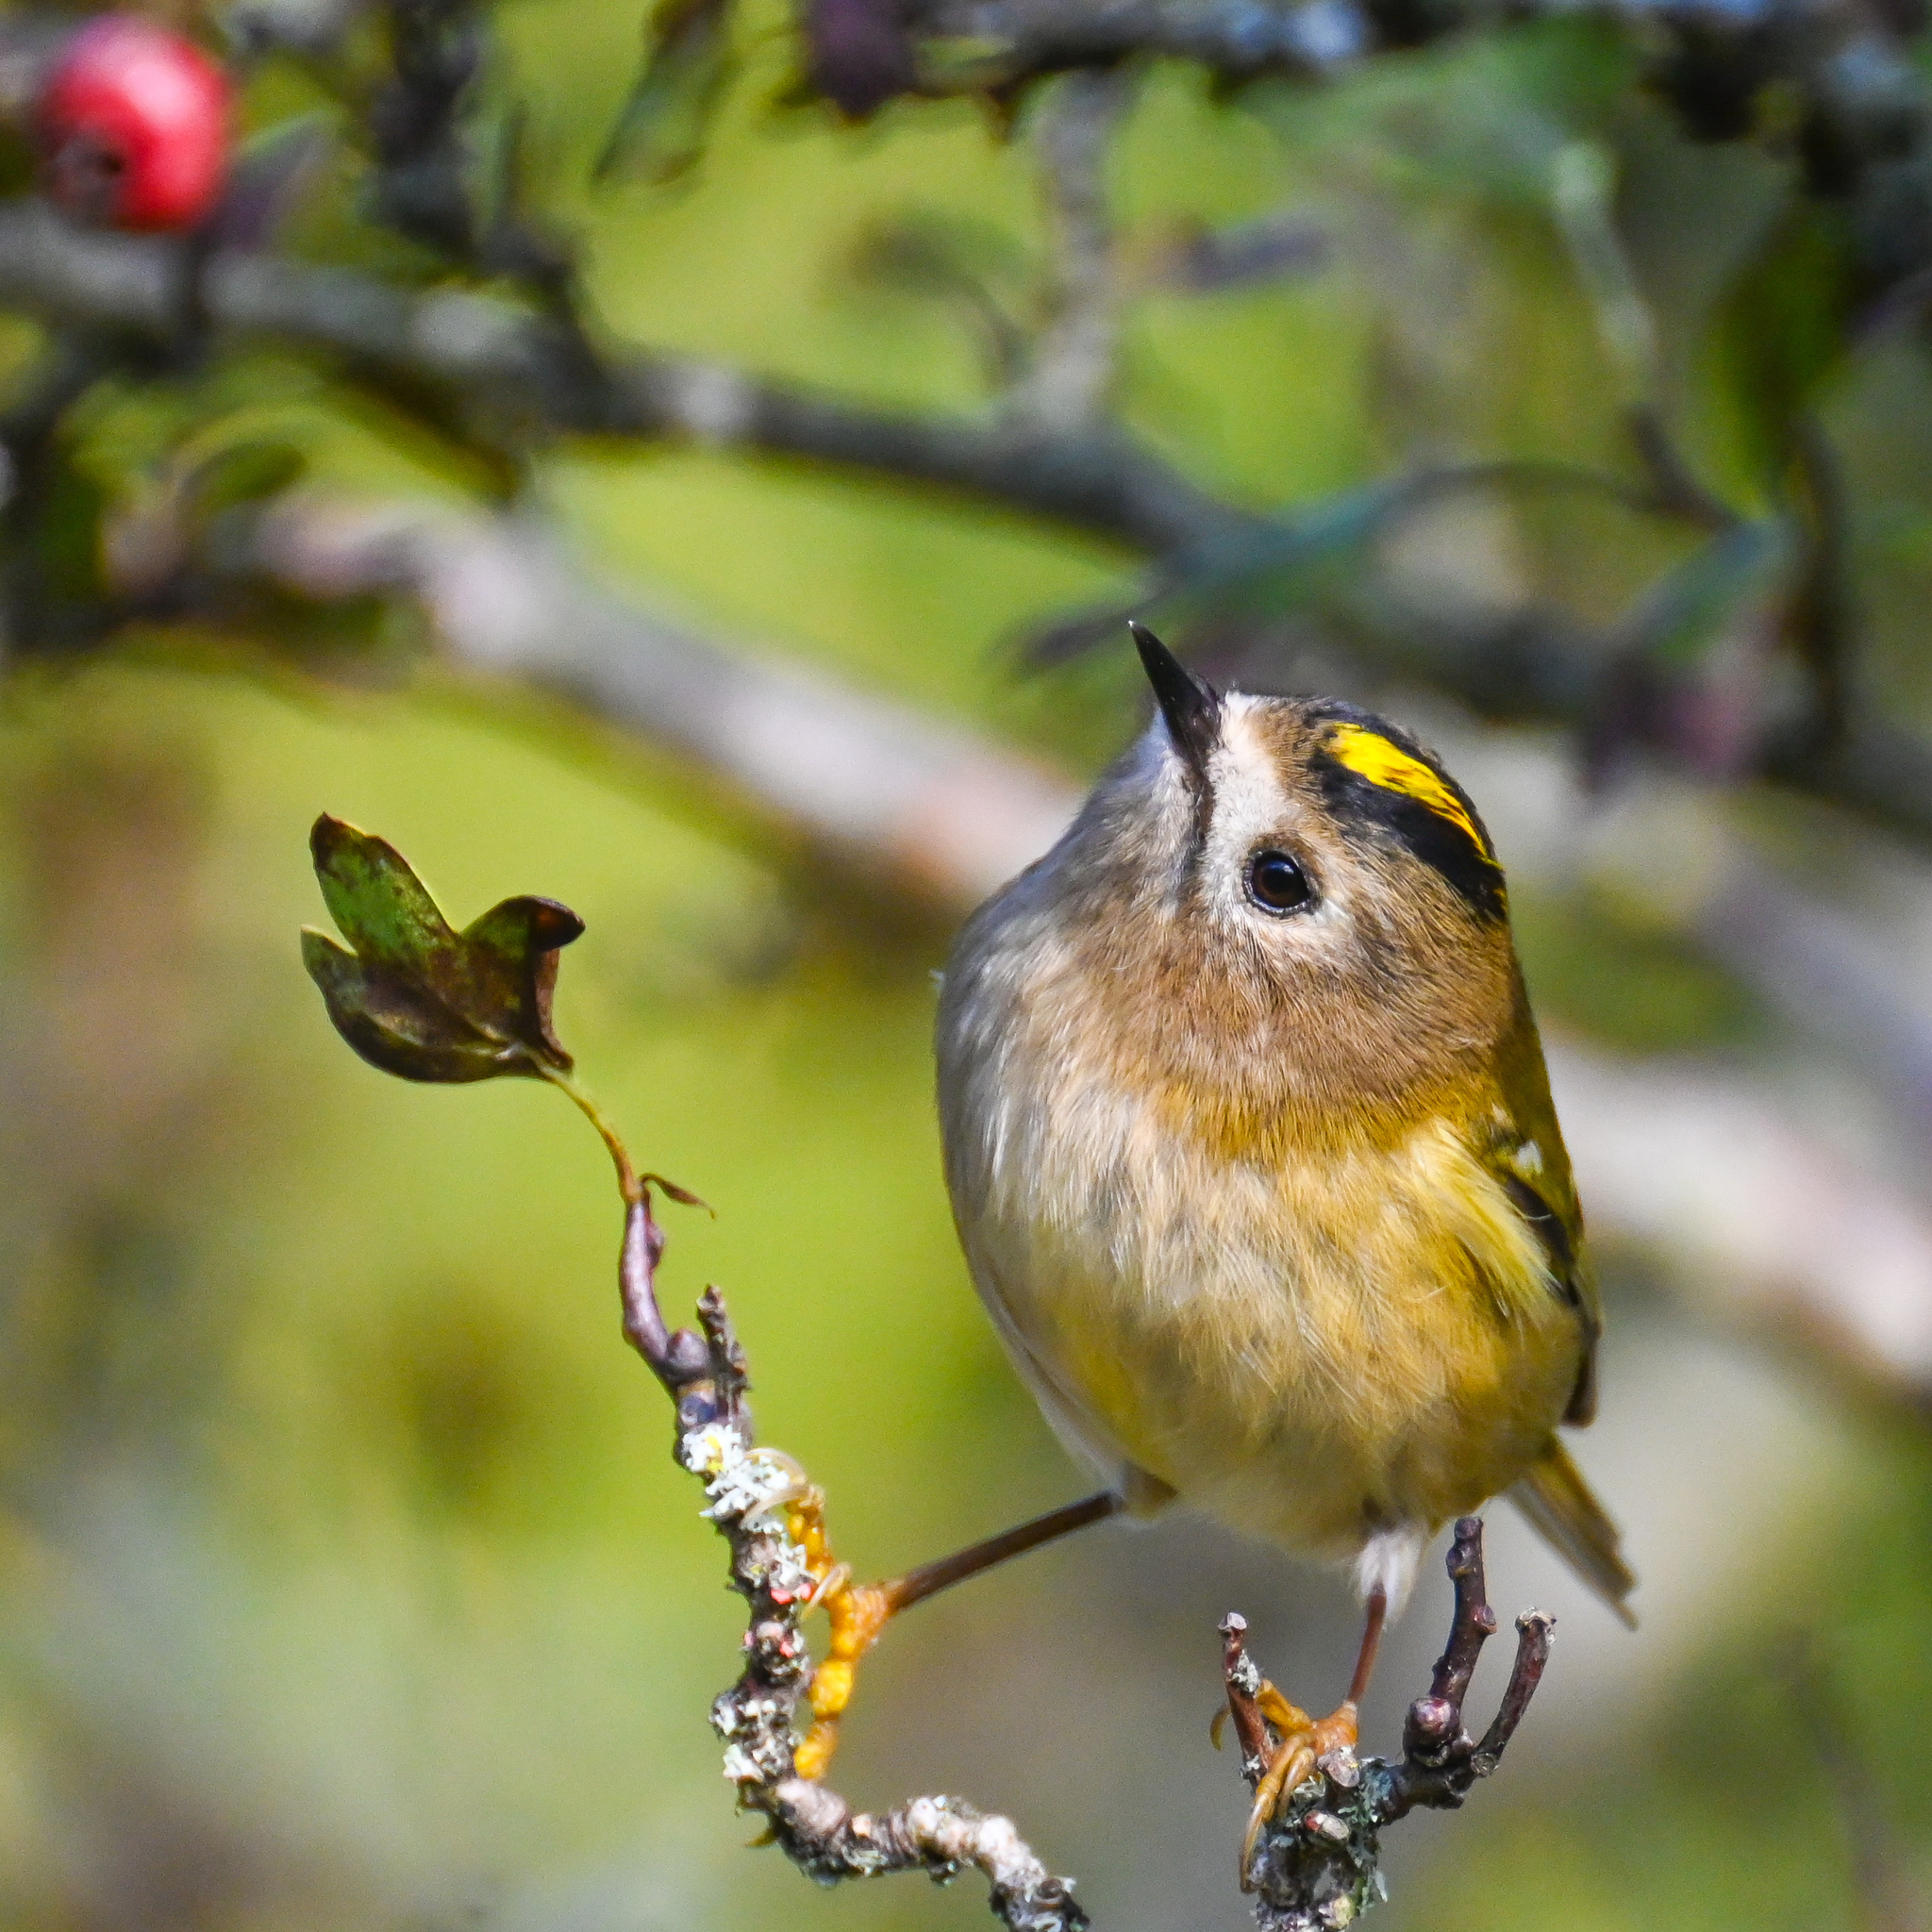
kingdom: Animalia
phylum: Chordata
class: Aves
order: Passeriformes
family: Regulidae
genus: Regulus
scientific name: Regulus regulus
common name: Goldcrest
